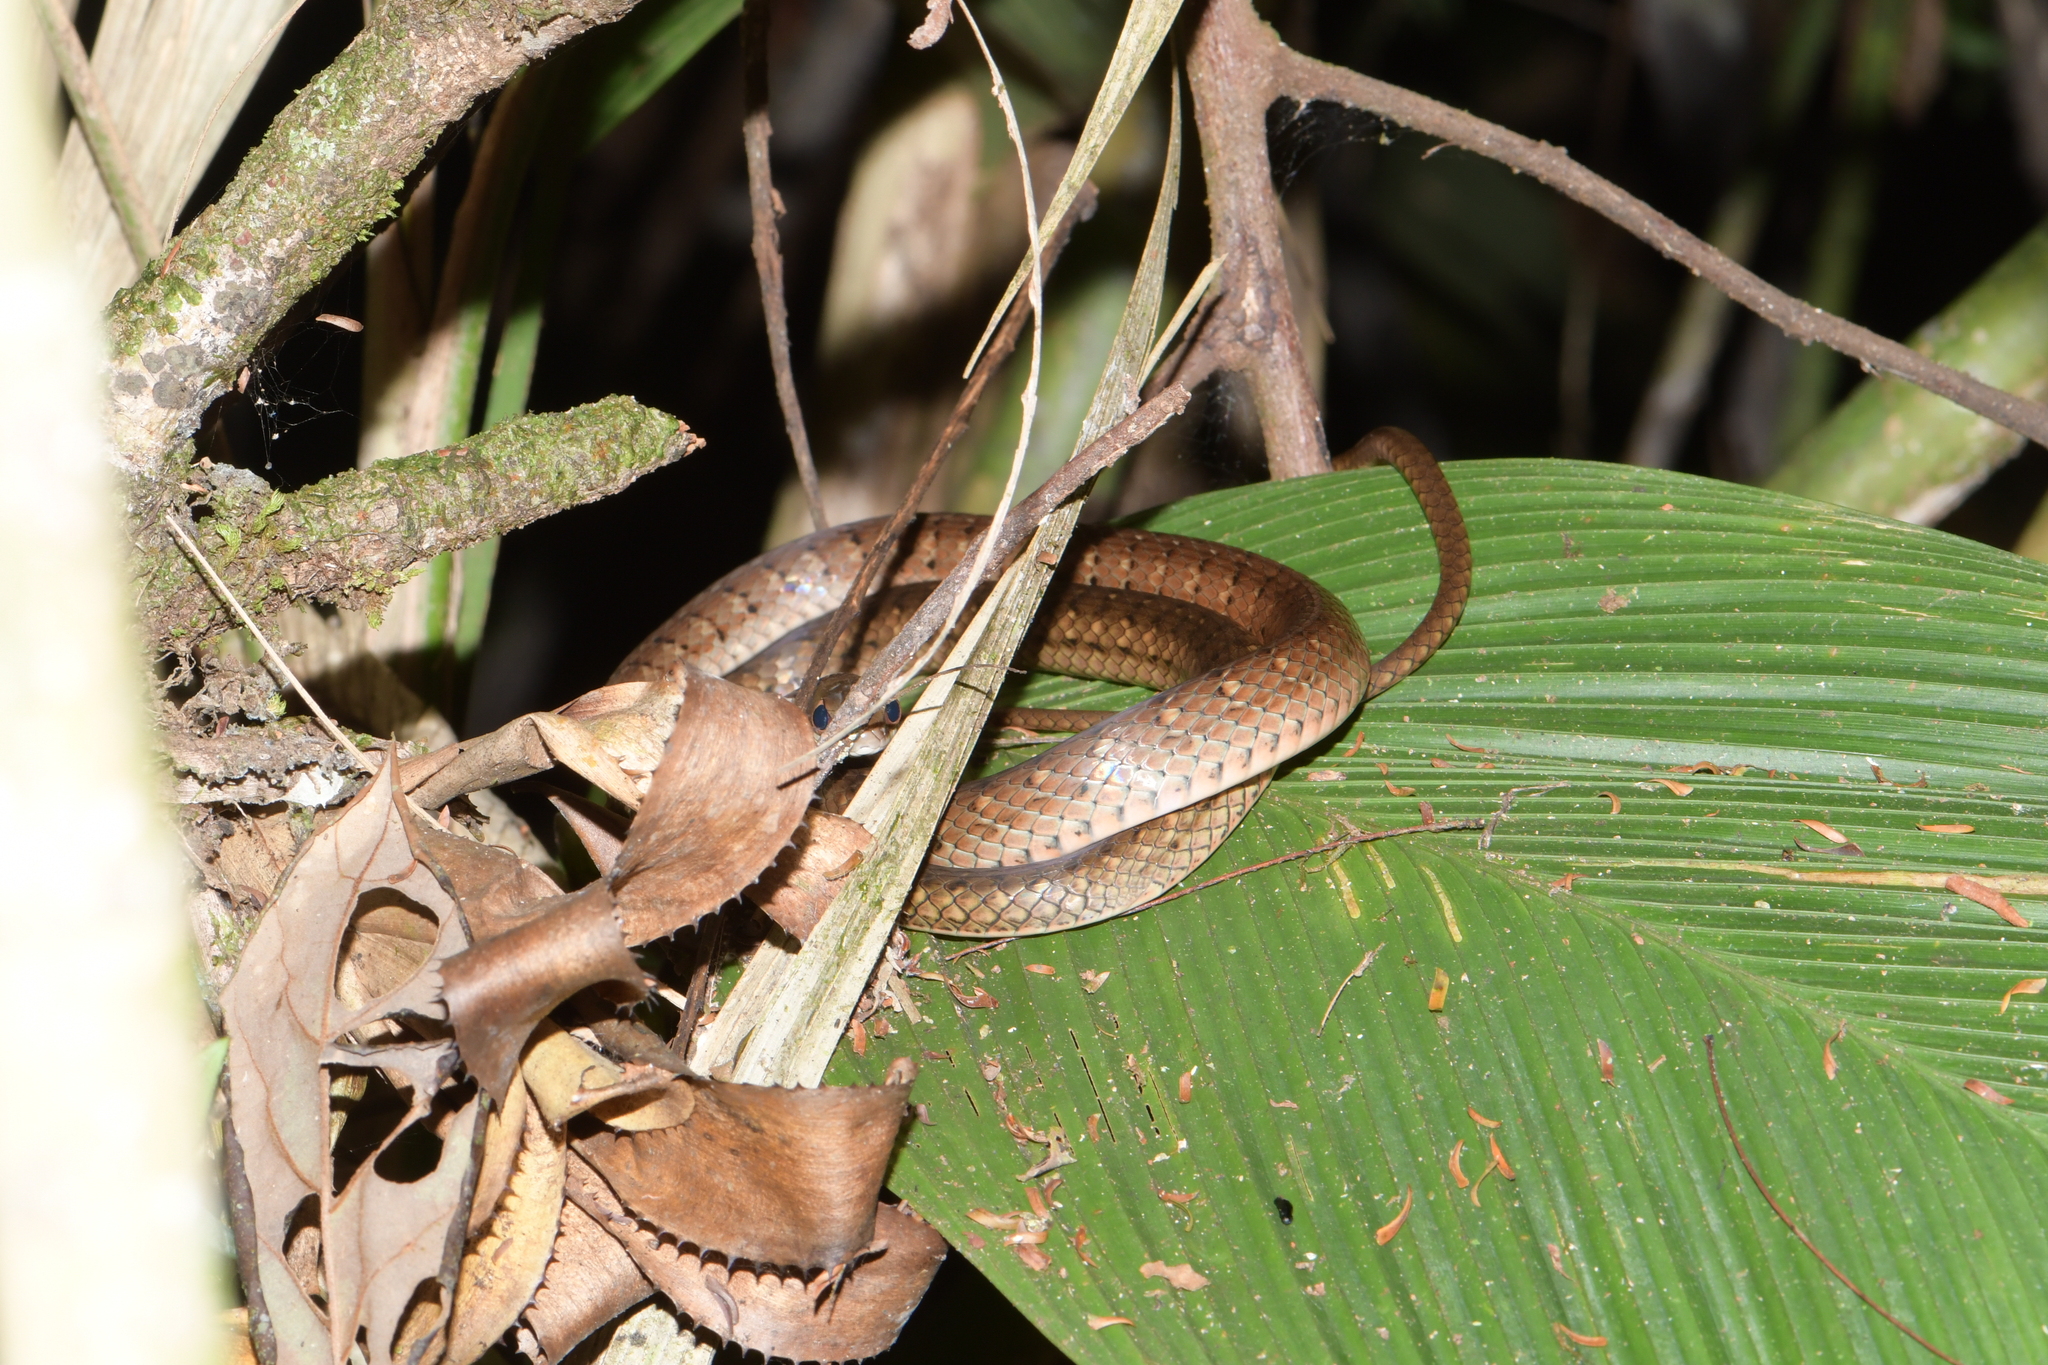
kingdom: Animalia
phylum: Chordata
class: Squamata
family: Colubridae
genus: Dendrophidion
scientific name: Dendrophidion percarinatum
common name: South american forest racer
